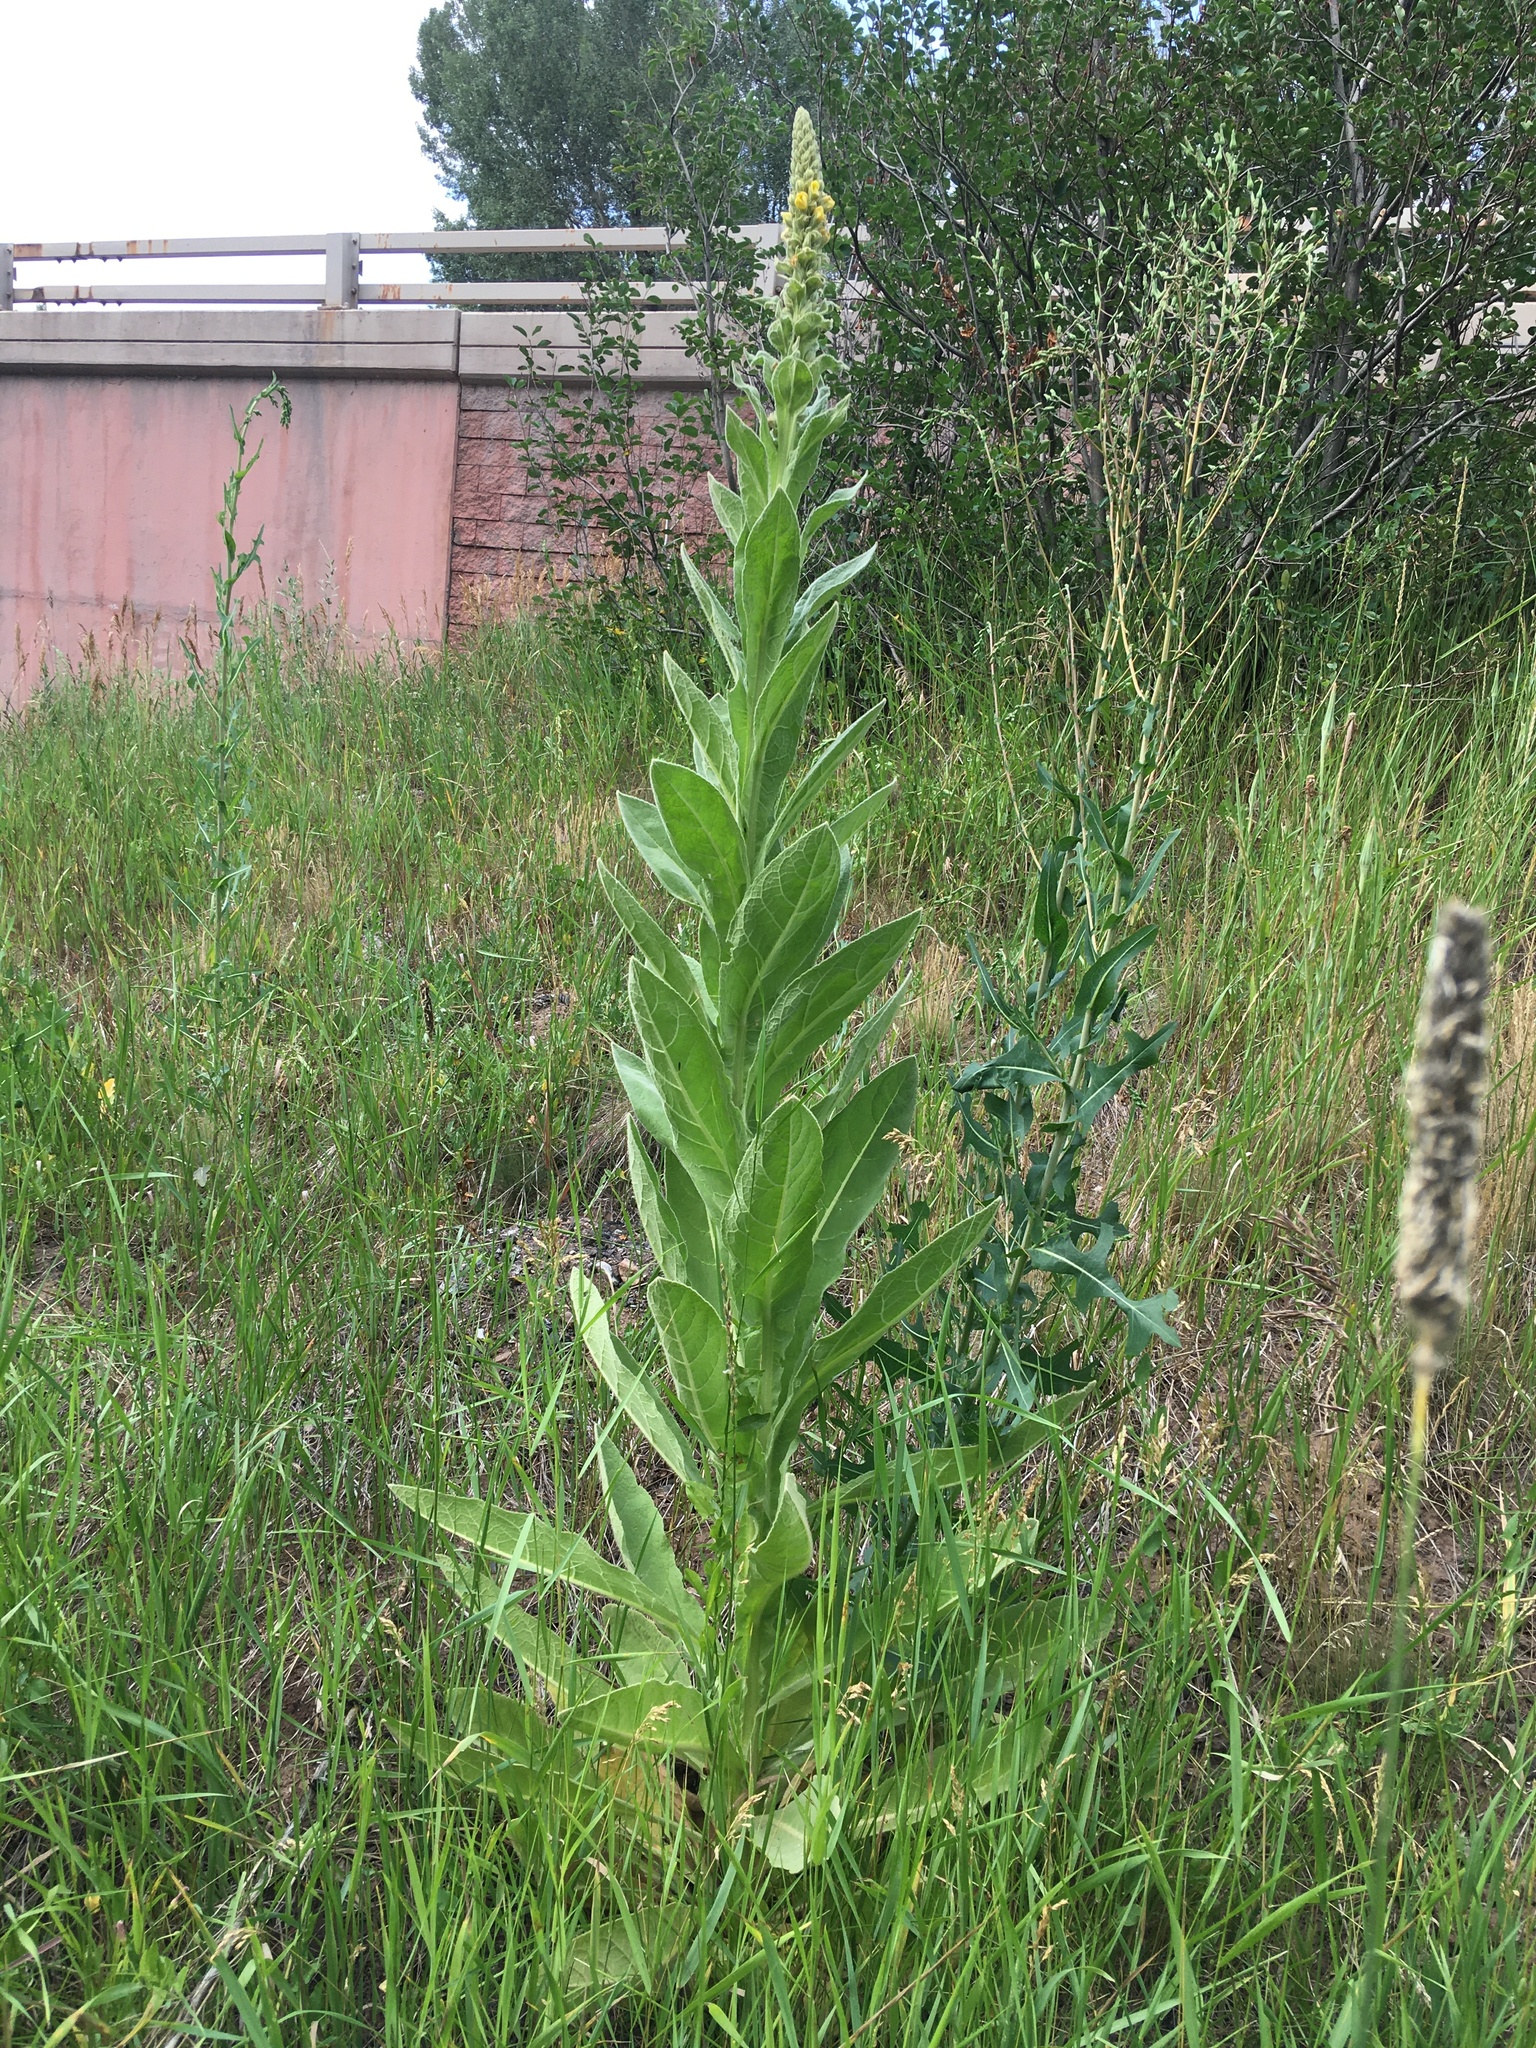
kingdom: Plantae
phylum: Tracheophyta
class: Magnoliopsida
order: Lamiales
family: Scrophulariaceae
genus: Verbascum
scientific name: Verbascum thapsus
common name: Common mullein
